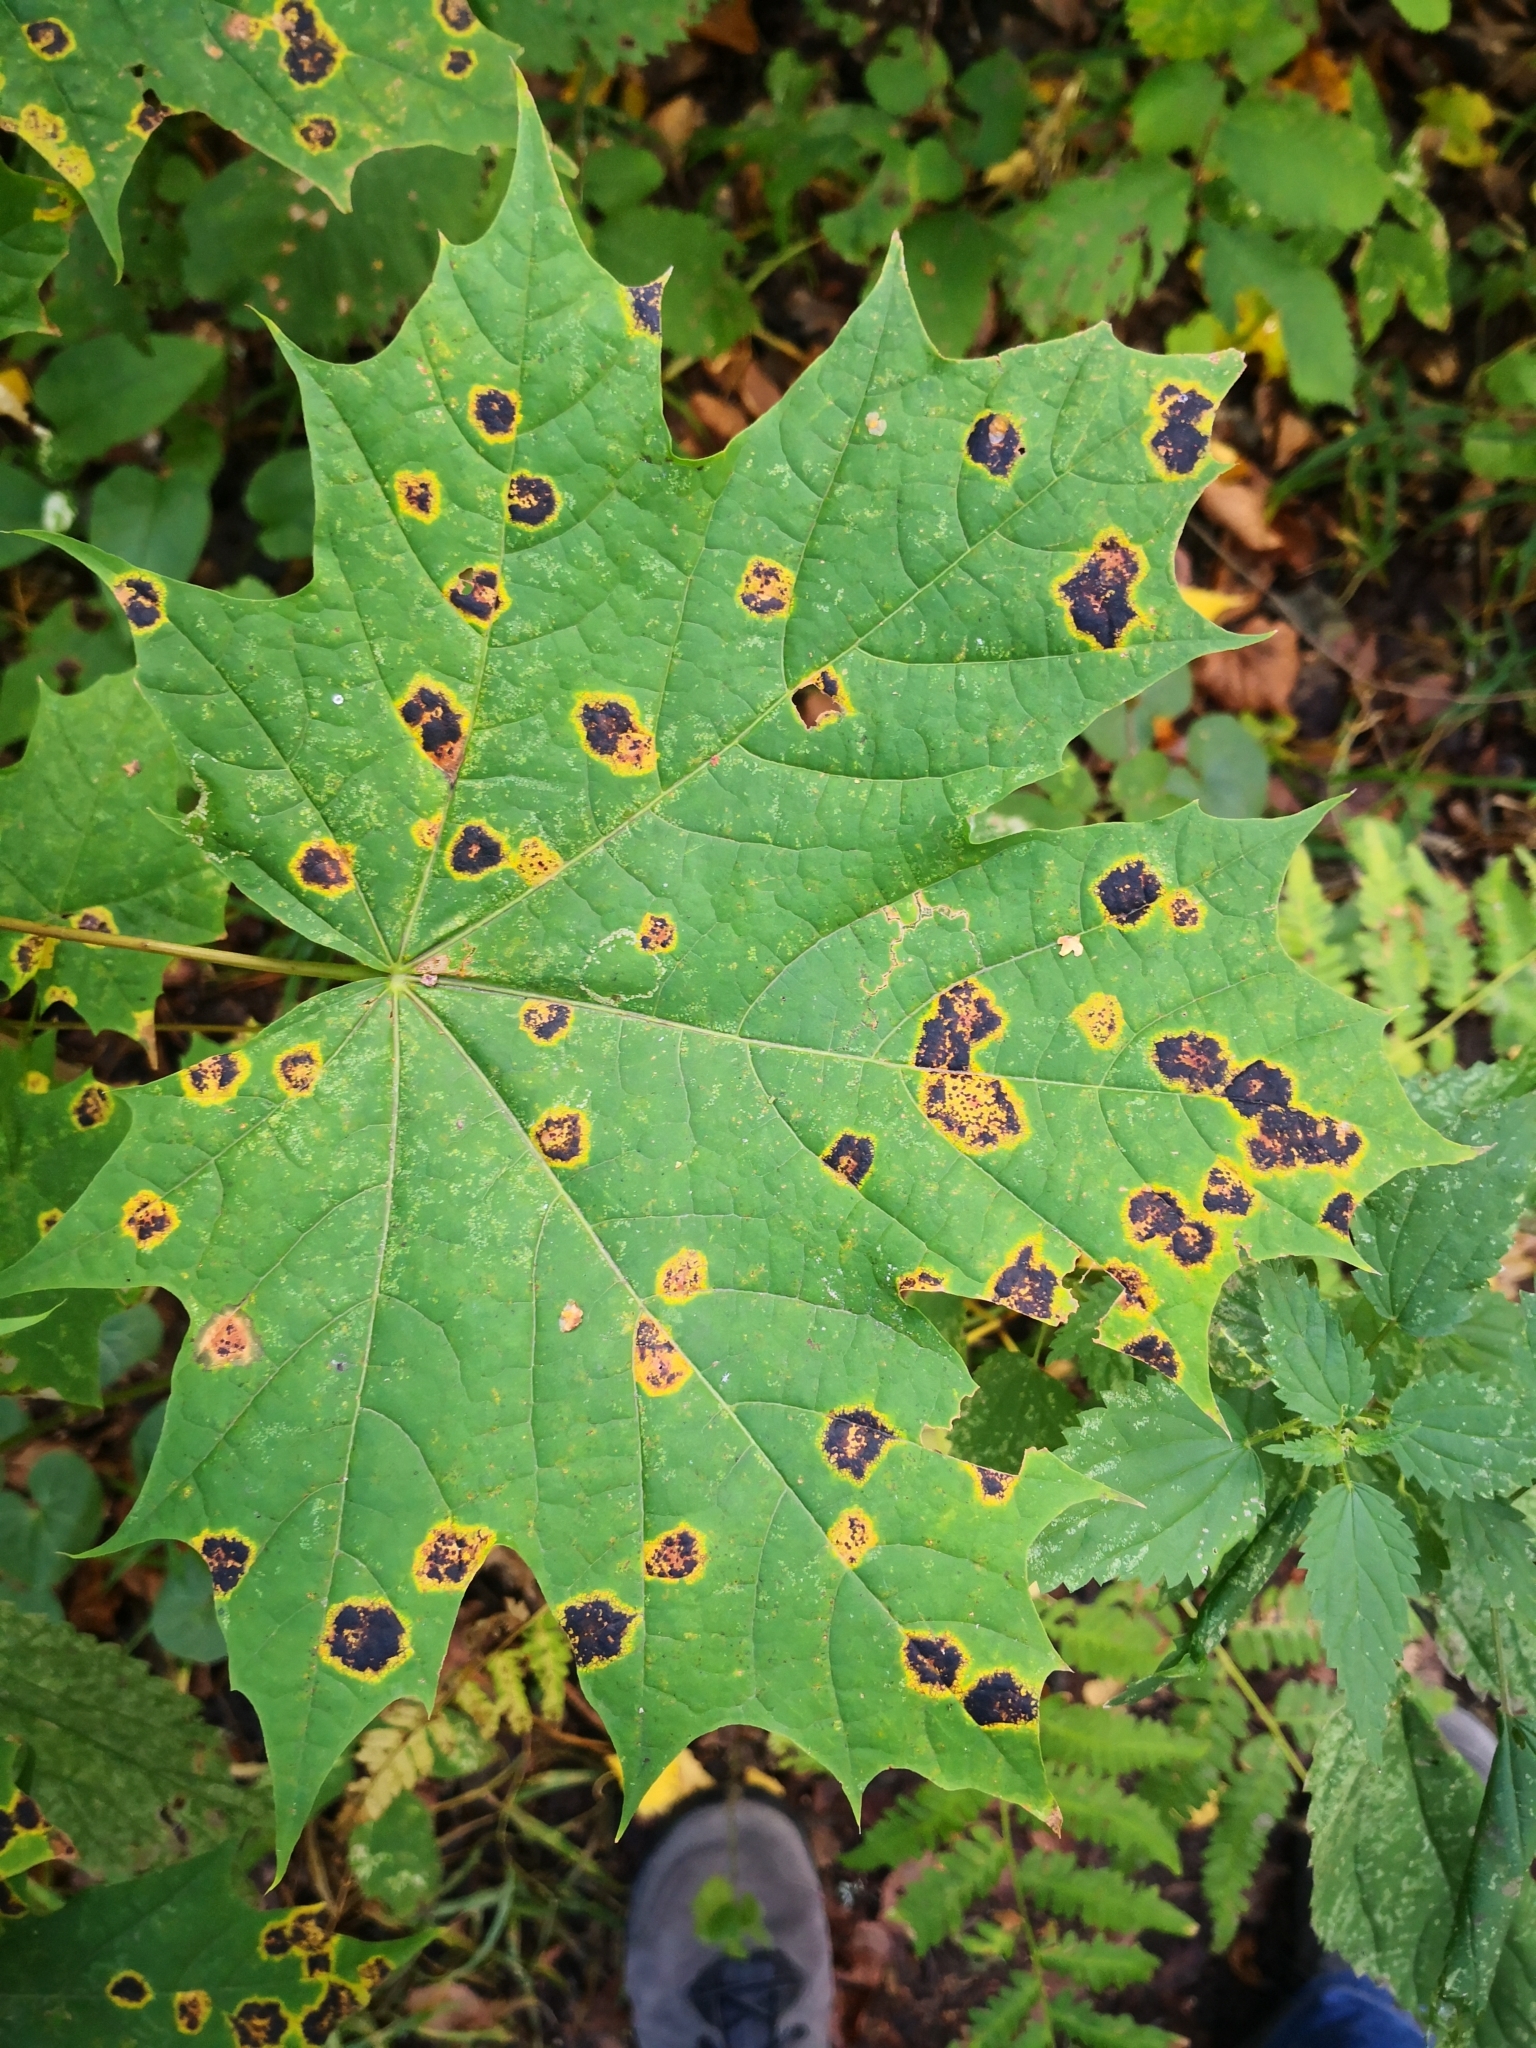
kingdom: Fungi
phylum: Ascomycota
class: Leotiomycetes
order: Rhytismatales
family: Rhytismataceae
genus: Rhytisma
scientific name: Rhytisma acerinum
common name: European tar spot
